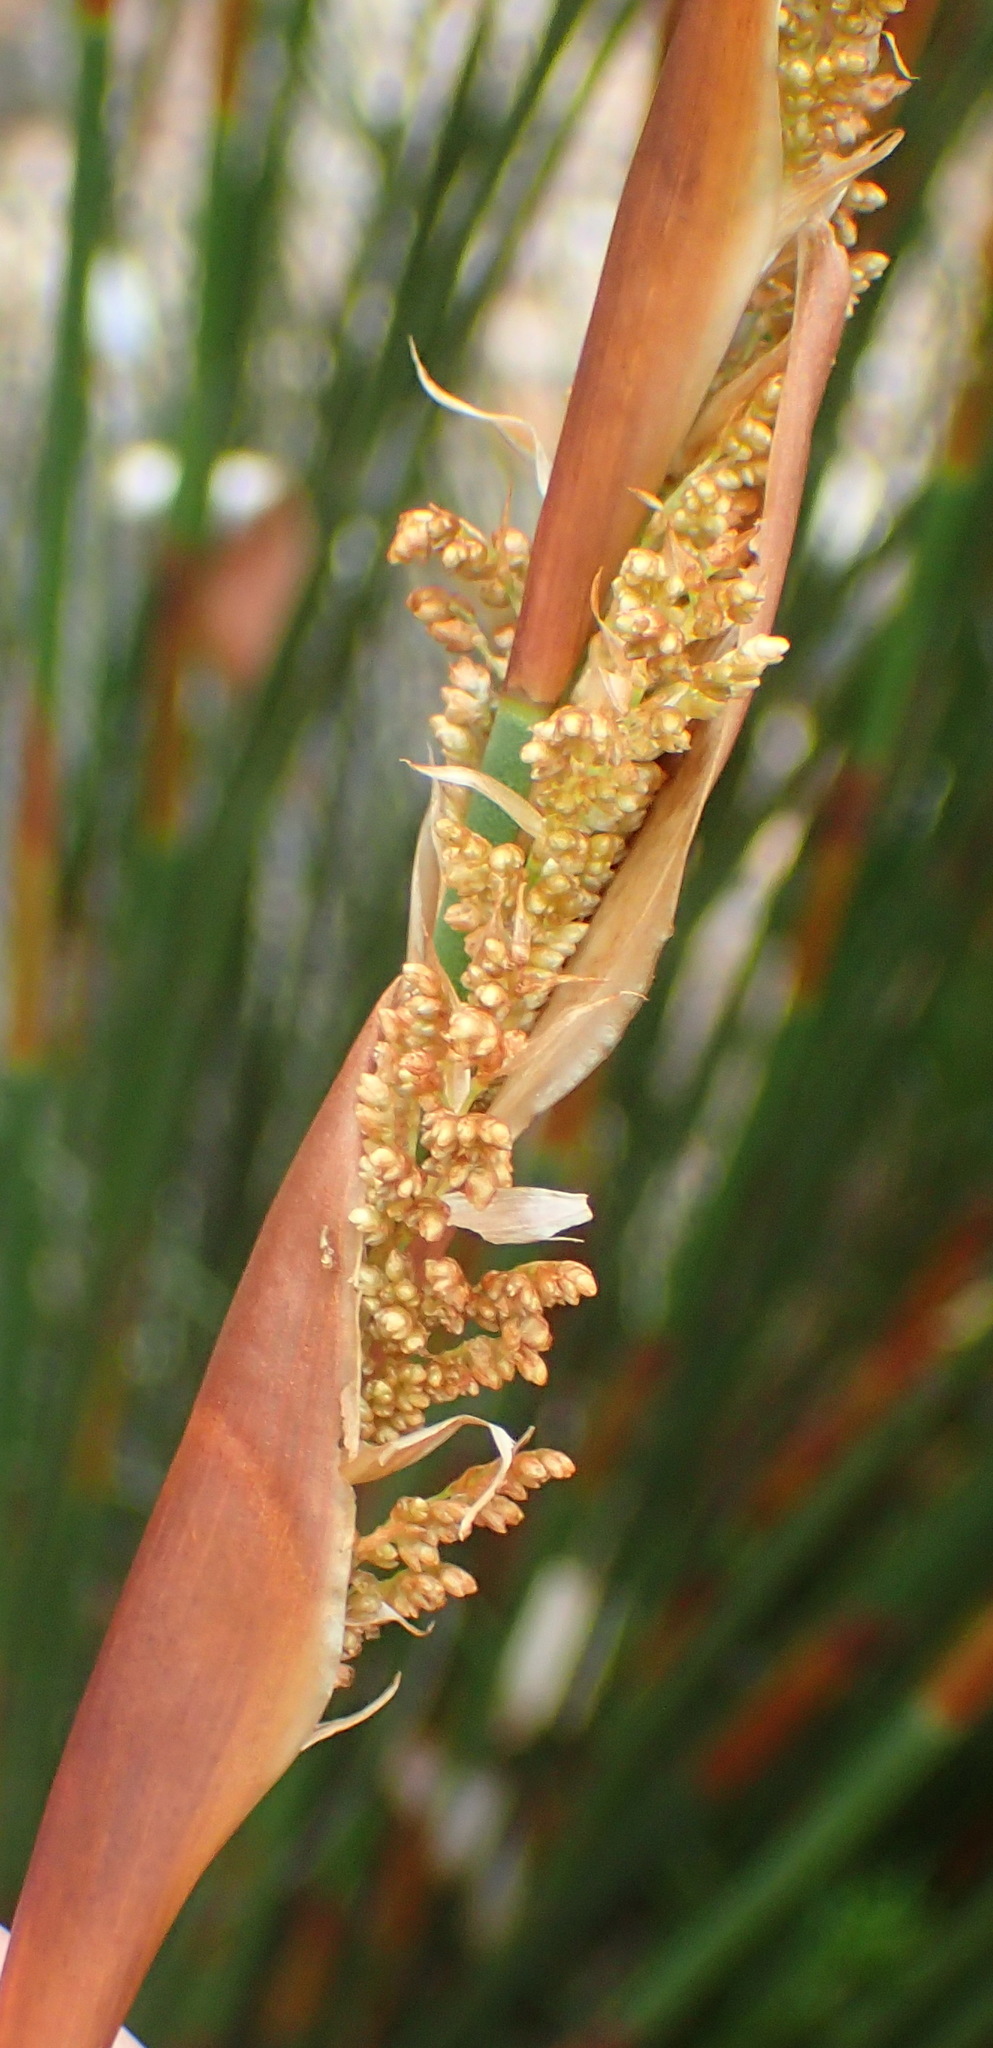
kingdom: Plantae
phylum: Tracheophyta
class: Liliopsida
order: Poales
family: Restionaceae
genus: Elegia
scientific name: Elegia equisetacea
